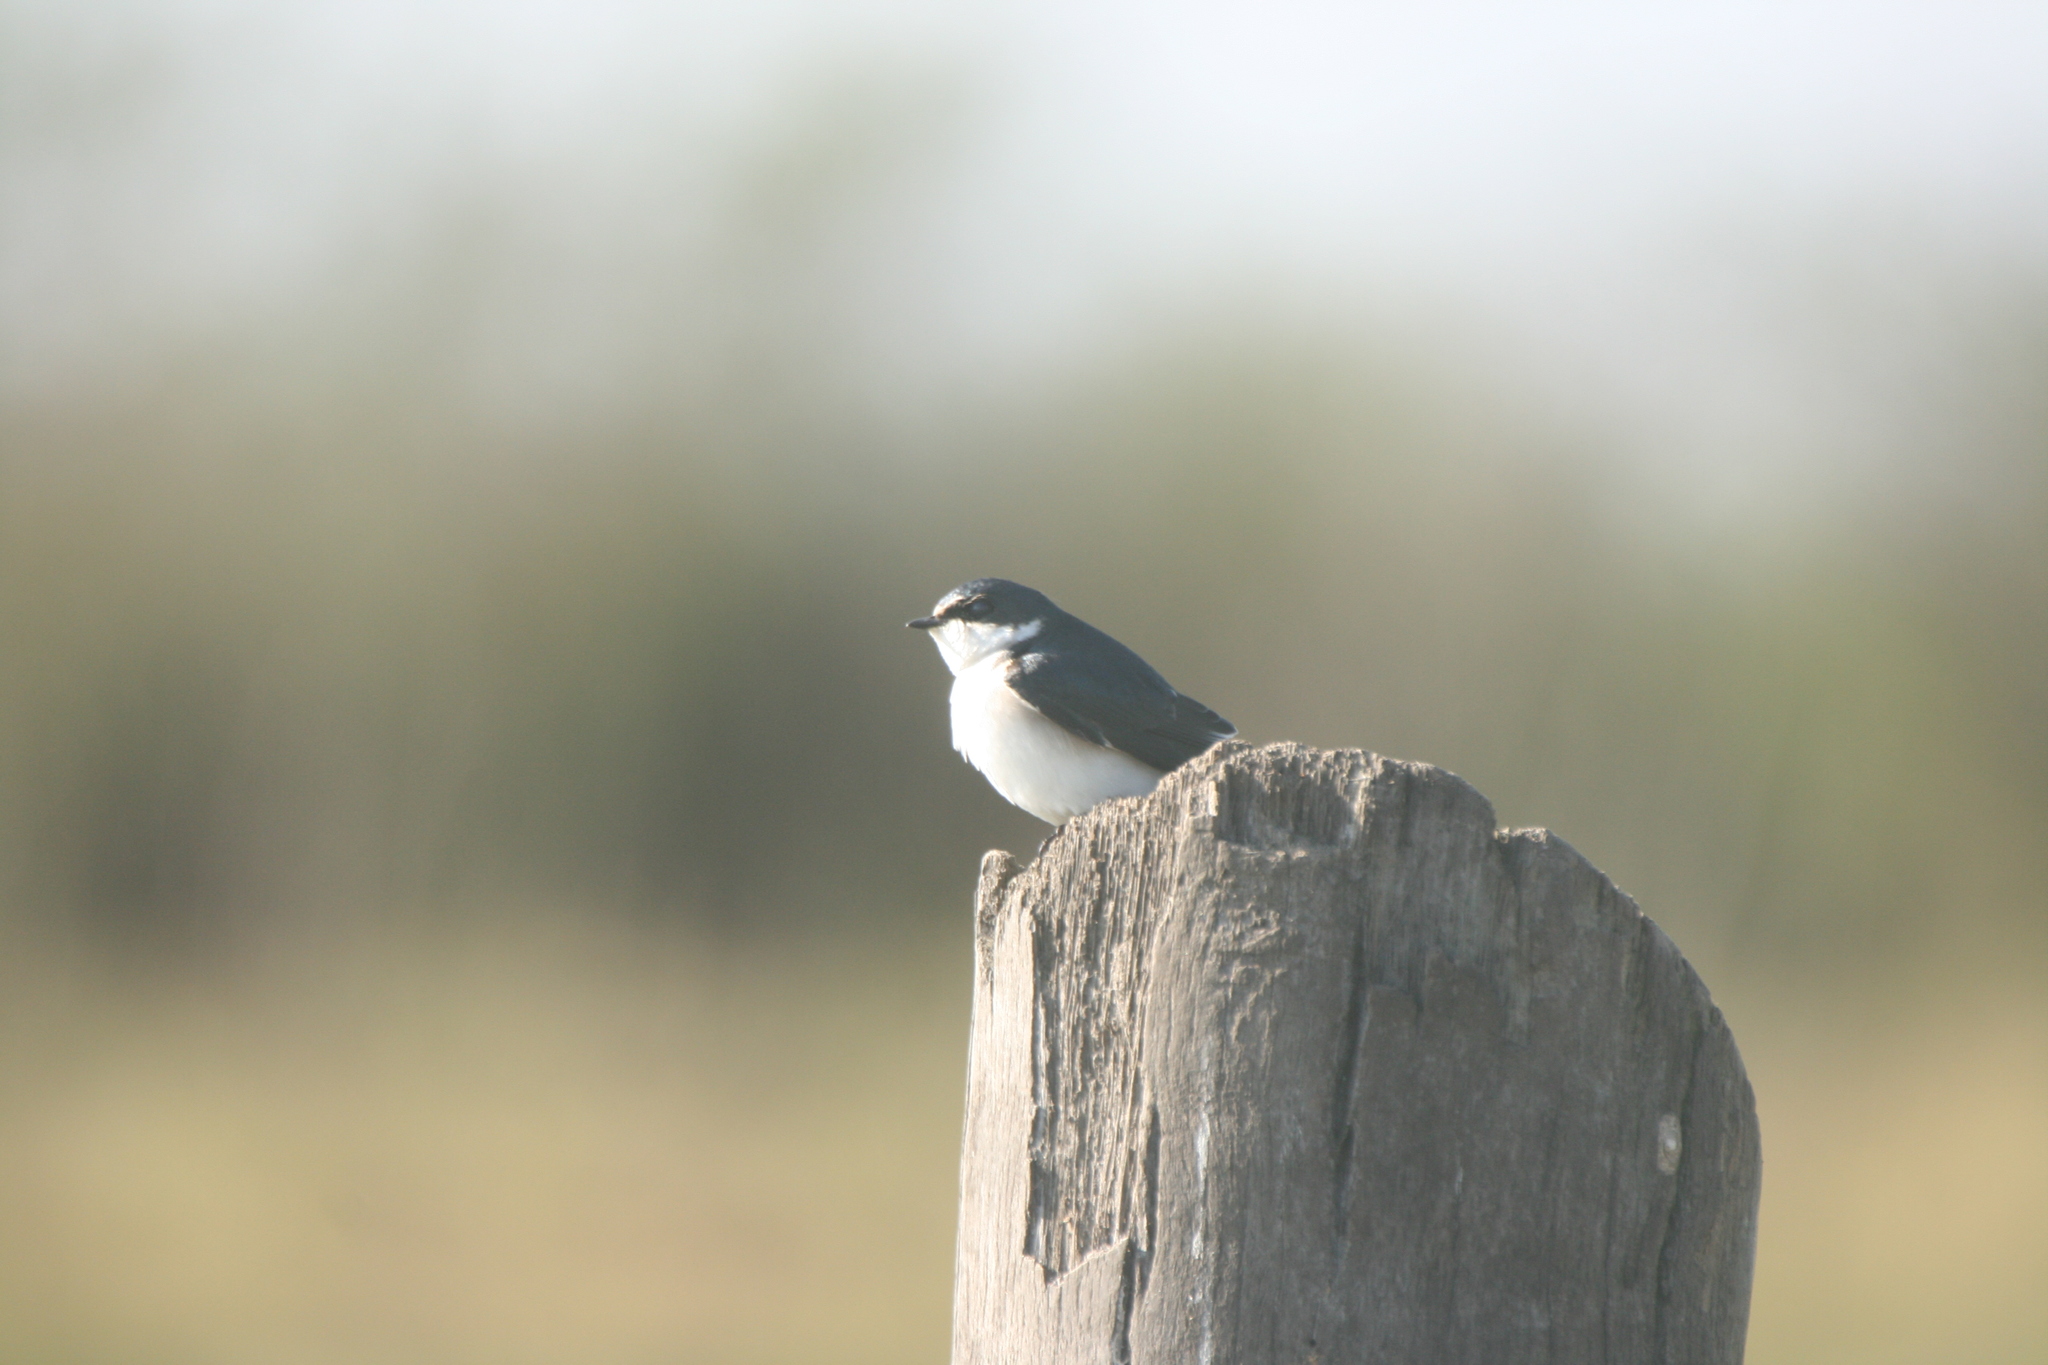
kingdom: Animalia
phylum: Chordata
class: Aves
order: Passeriformes
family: Hirundinidae
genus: Tachycineta
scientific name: Tachycineta leucorrhoa
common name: White-rumped swallow
